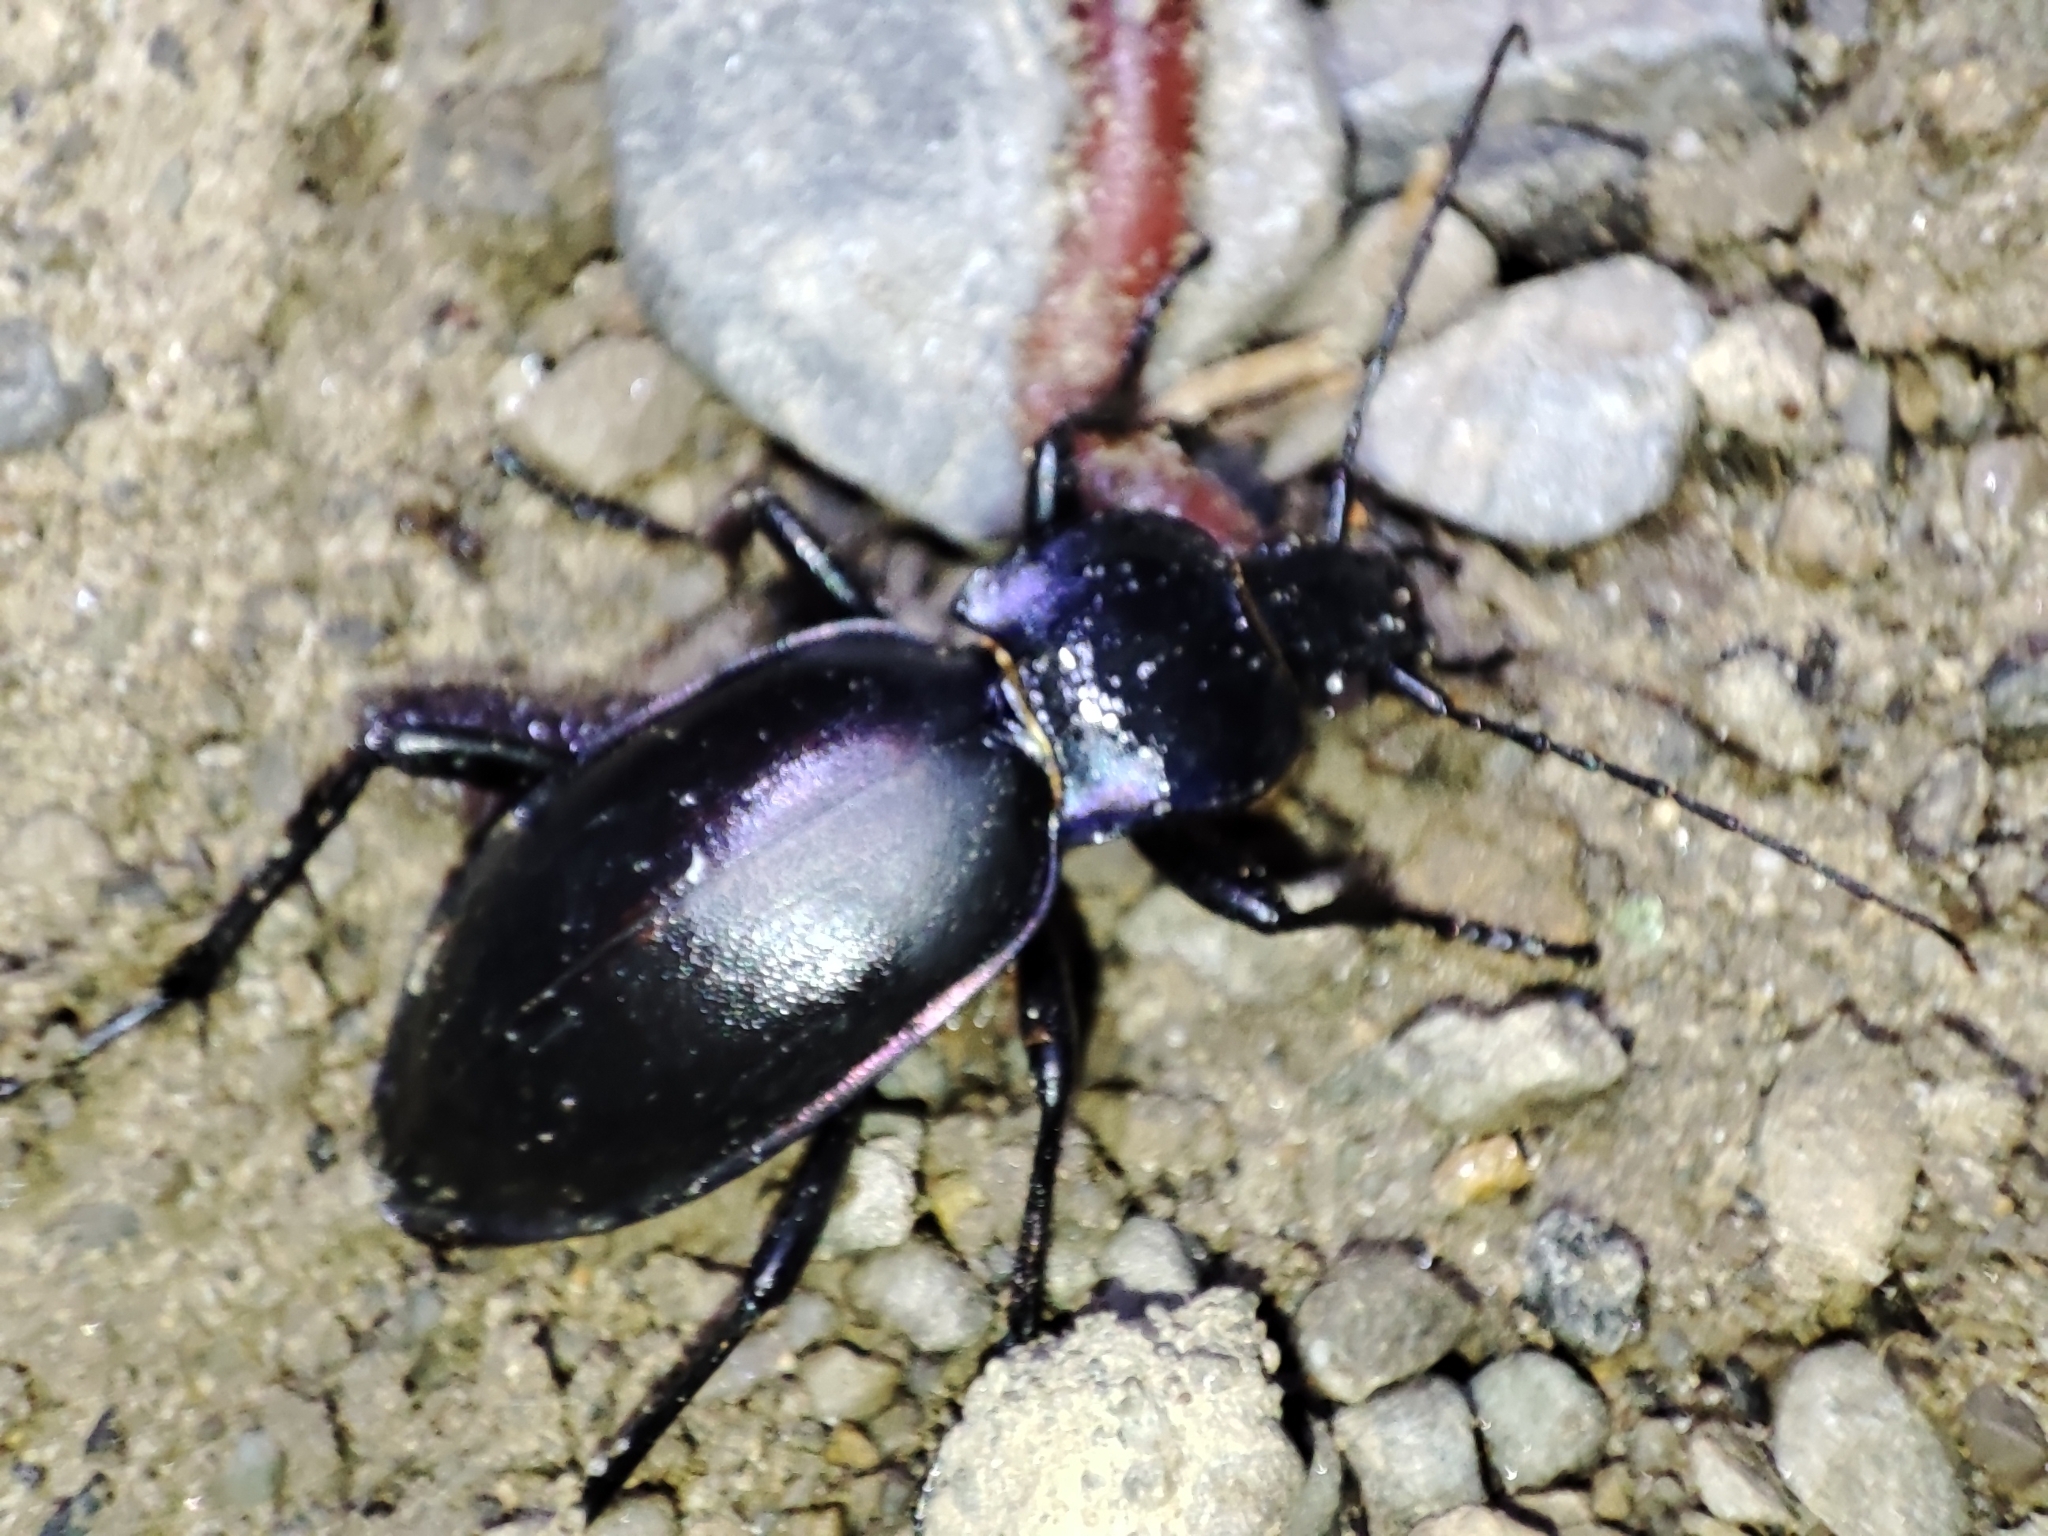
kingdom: Animalia
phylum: Arthropoda
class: Insecta
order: Coleoptera
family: Carabidae
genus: Carabus
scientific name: Carabus violaceus
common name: Violet ground beetle
